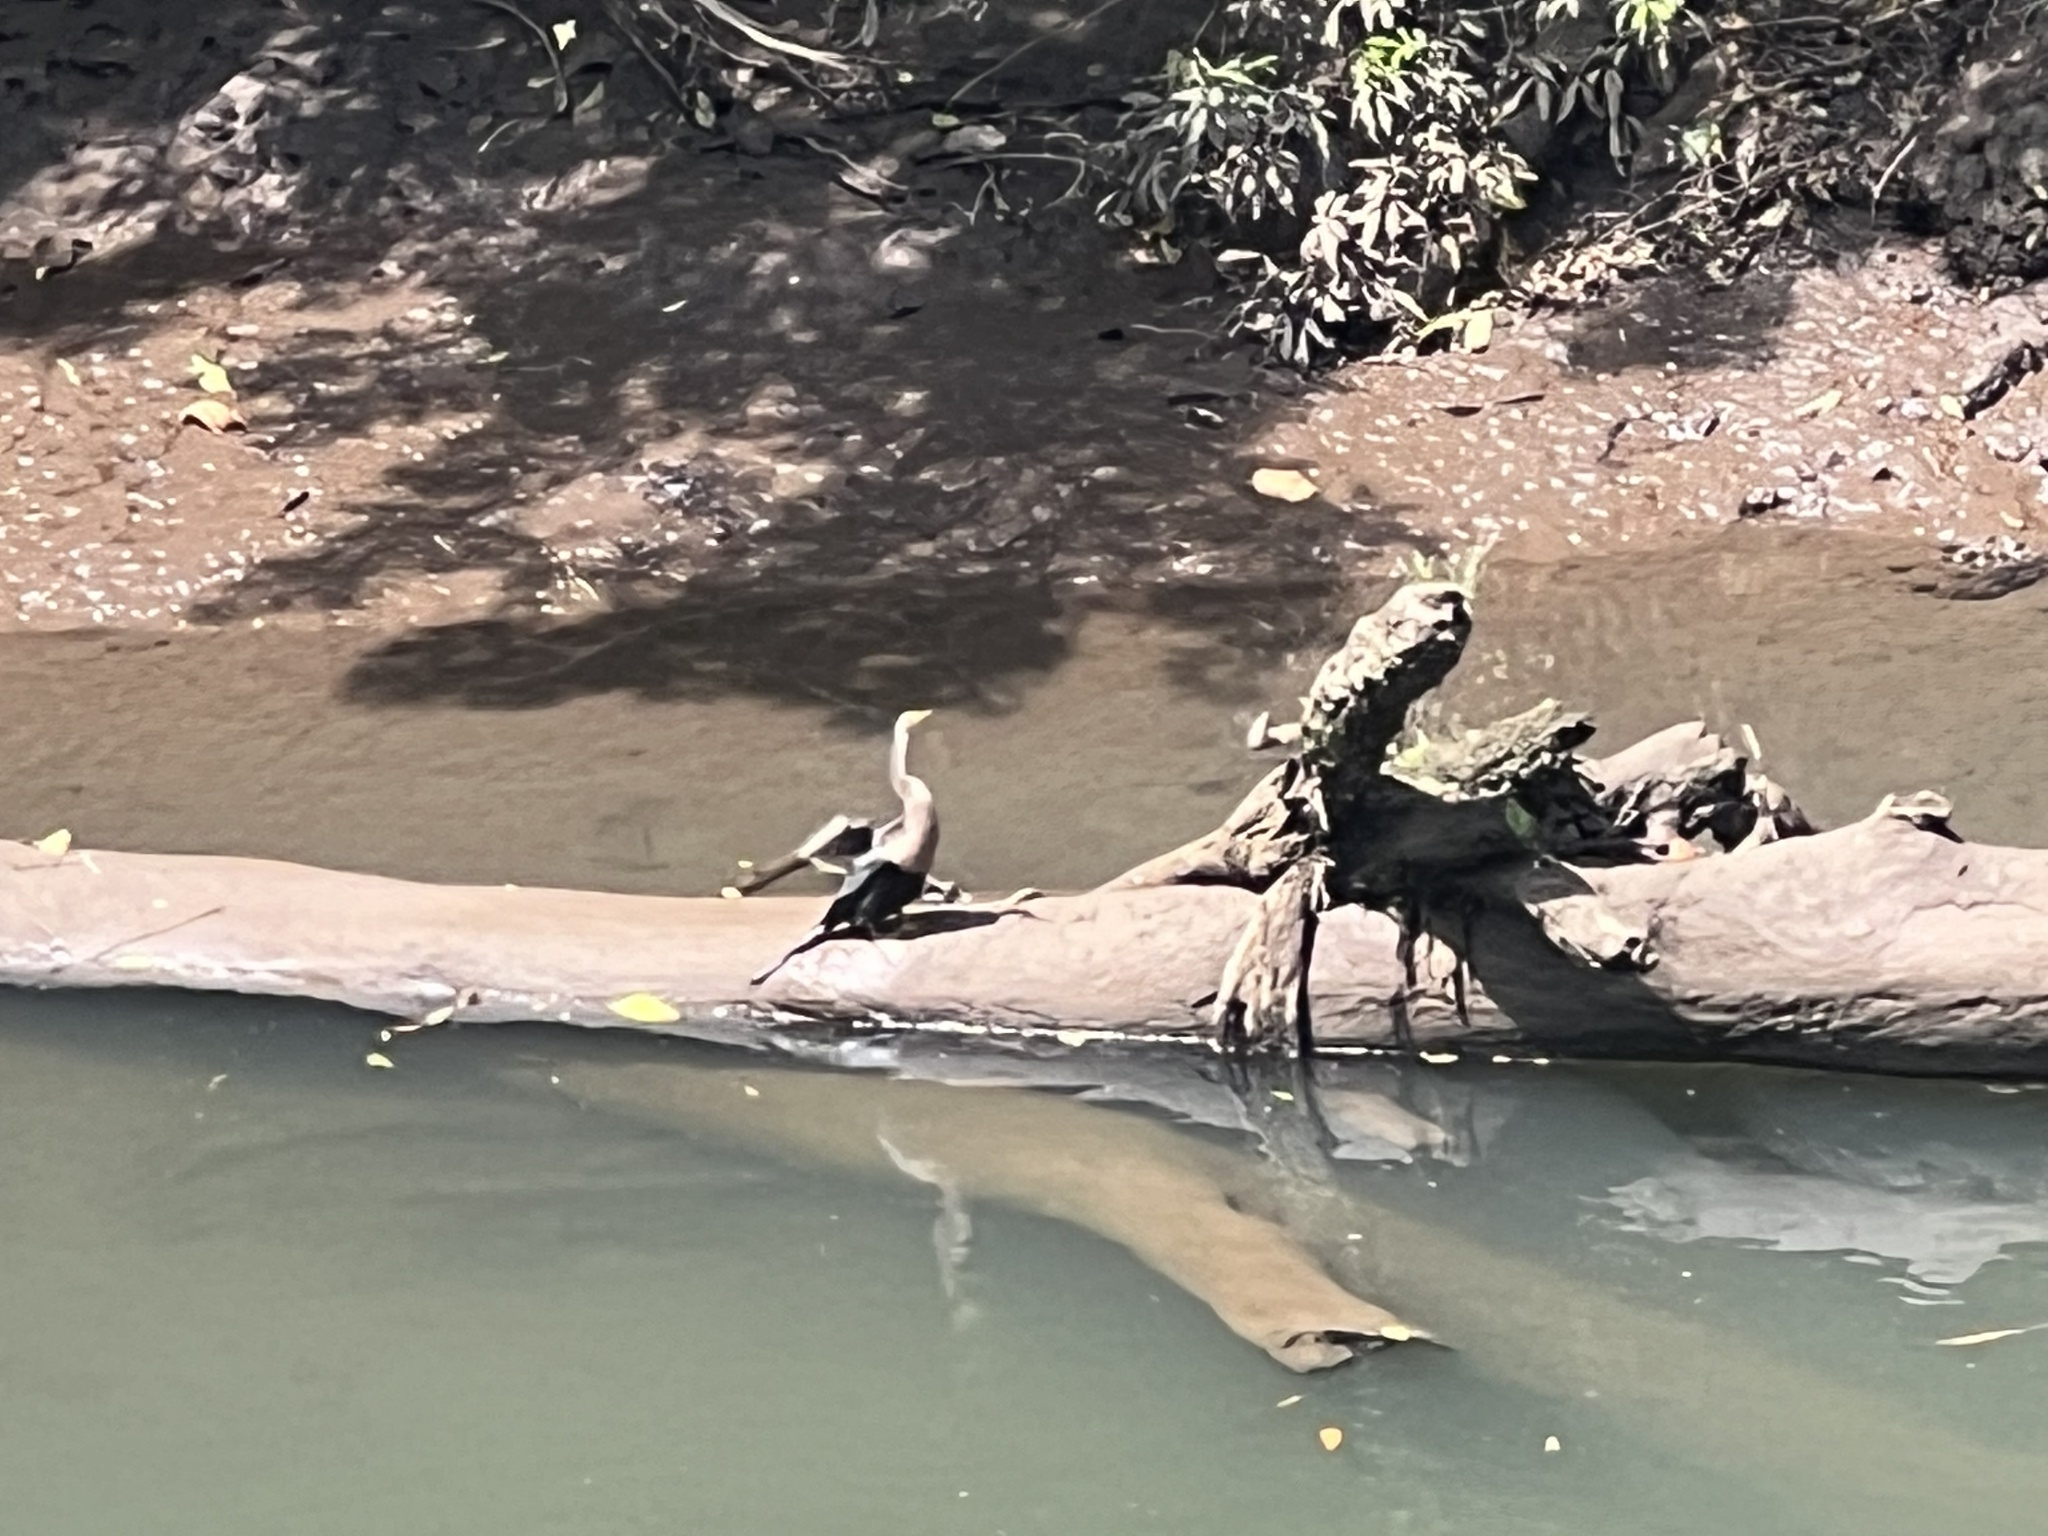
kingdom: Animalia
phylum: Chordata
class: Aves
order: Suliformes
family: Anhingidae
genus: Anhinga
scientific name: Anhinga anhinga
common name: Anhinga
